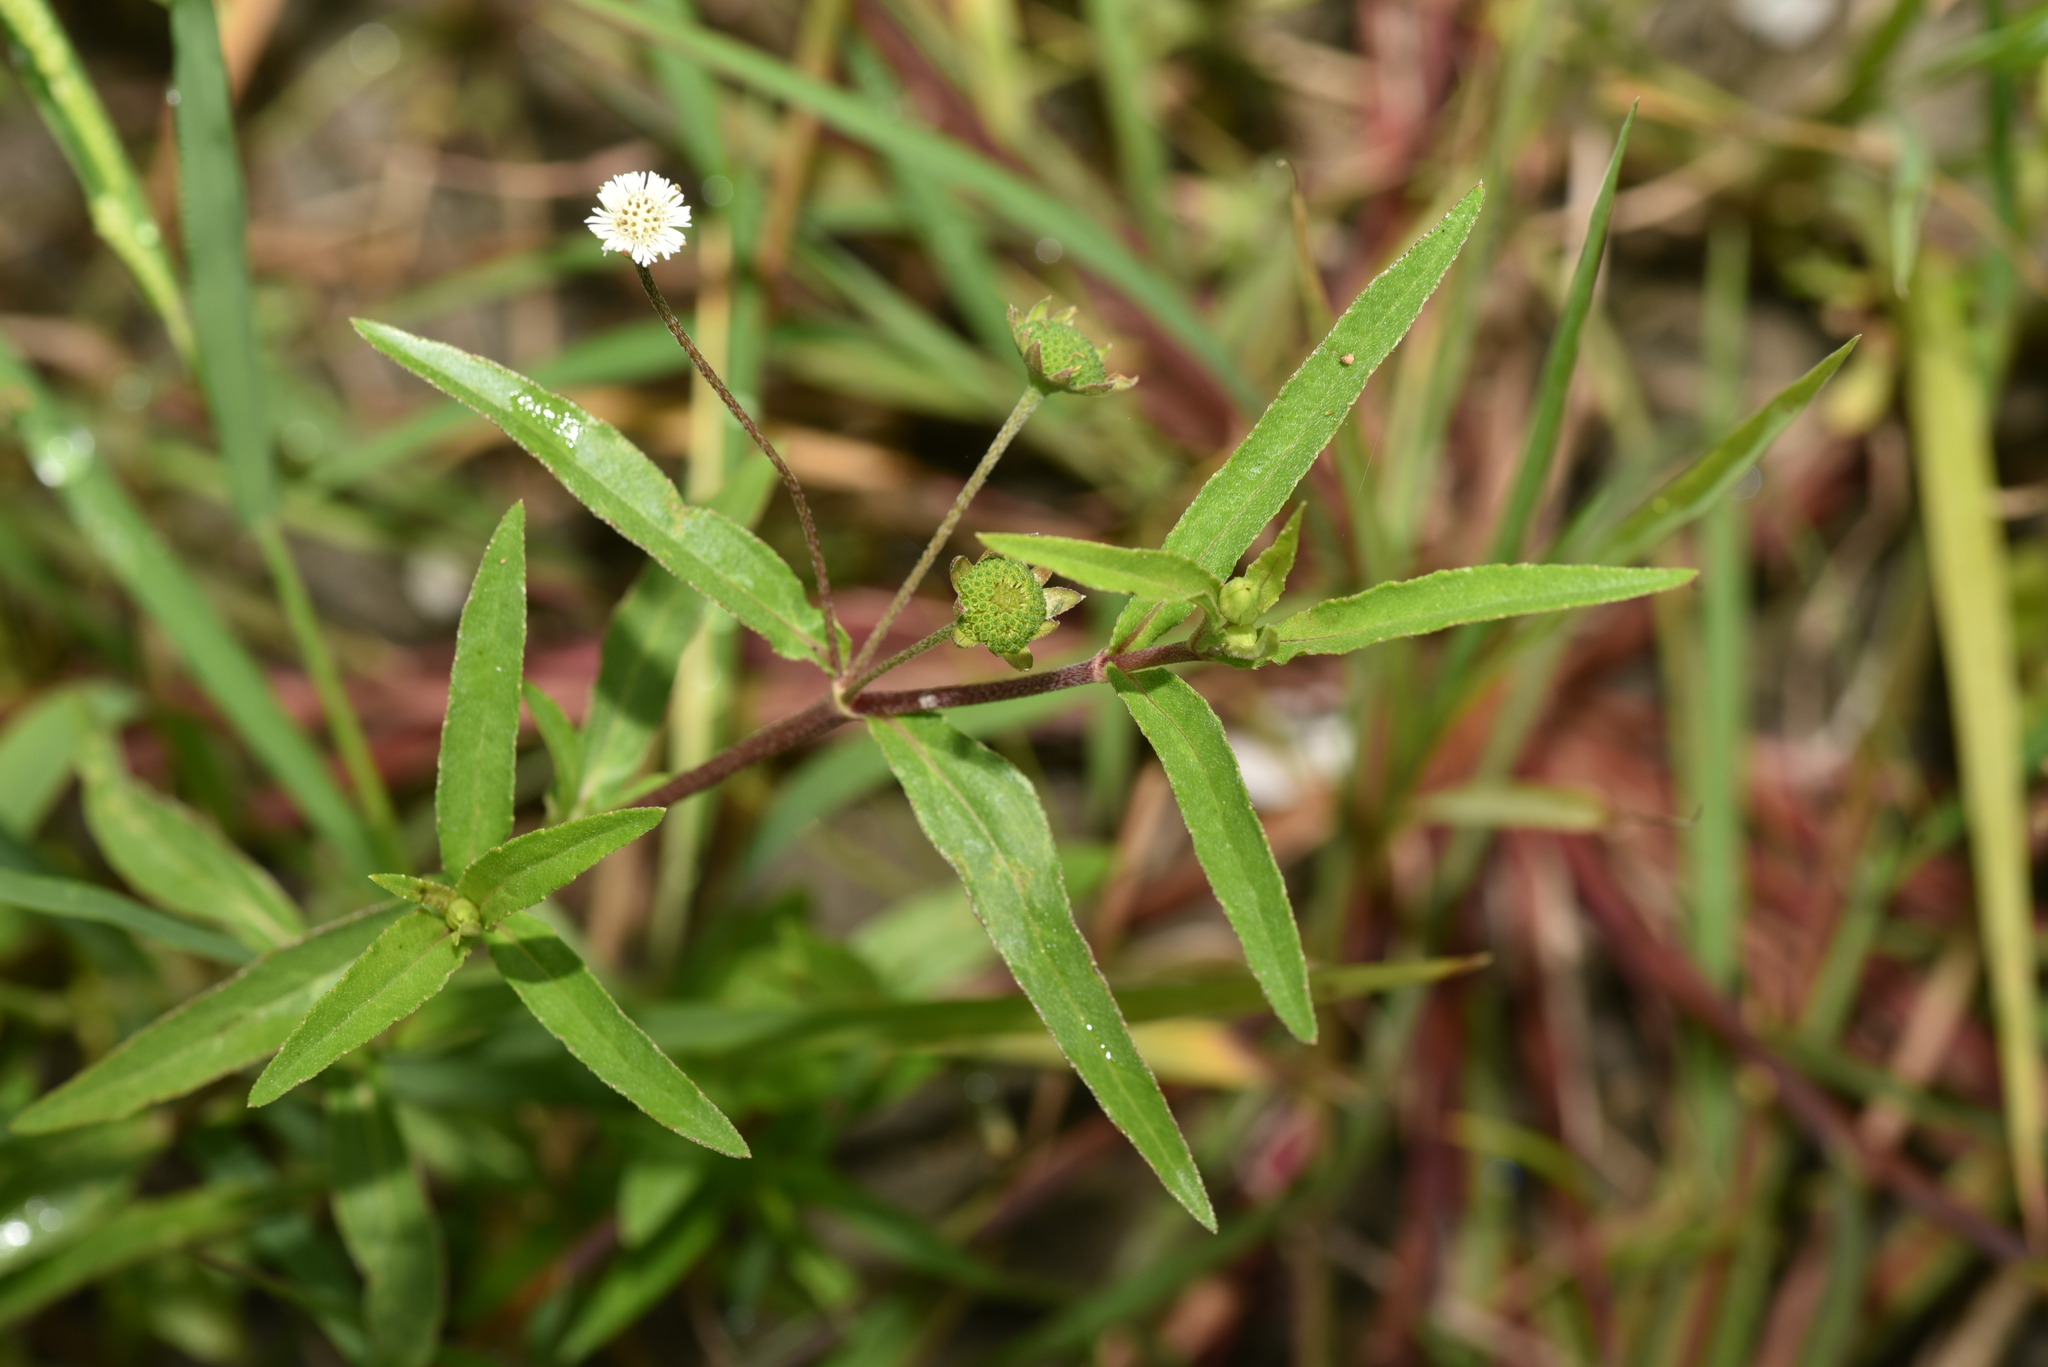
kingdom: Plantae
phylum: Tracheophyta
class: Magnoliopsida
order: Asterales
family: Asteraceae
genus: Eclipta
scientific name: Eclipta prostrata
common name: False daisy
